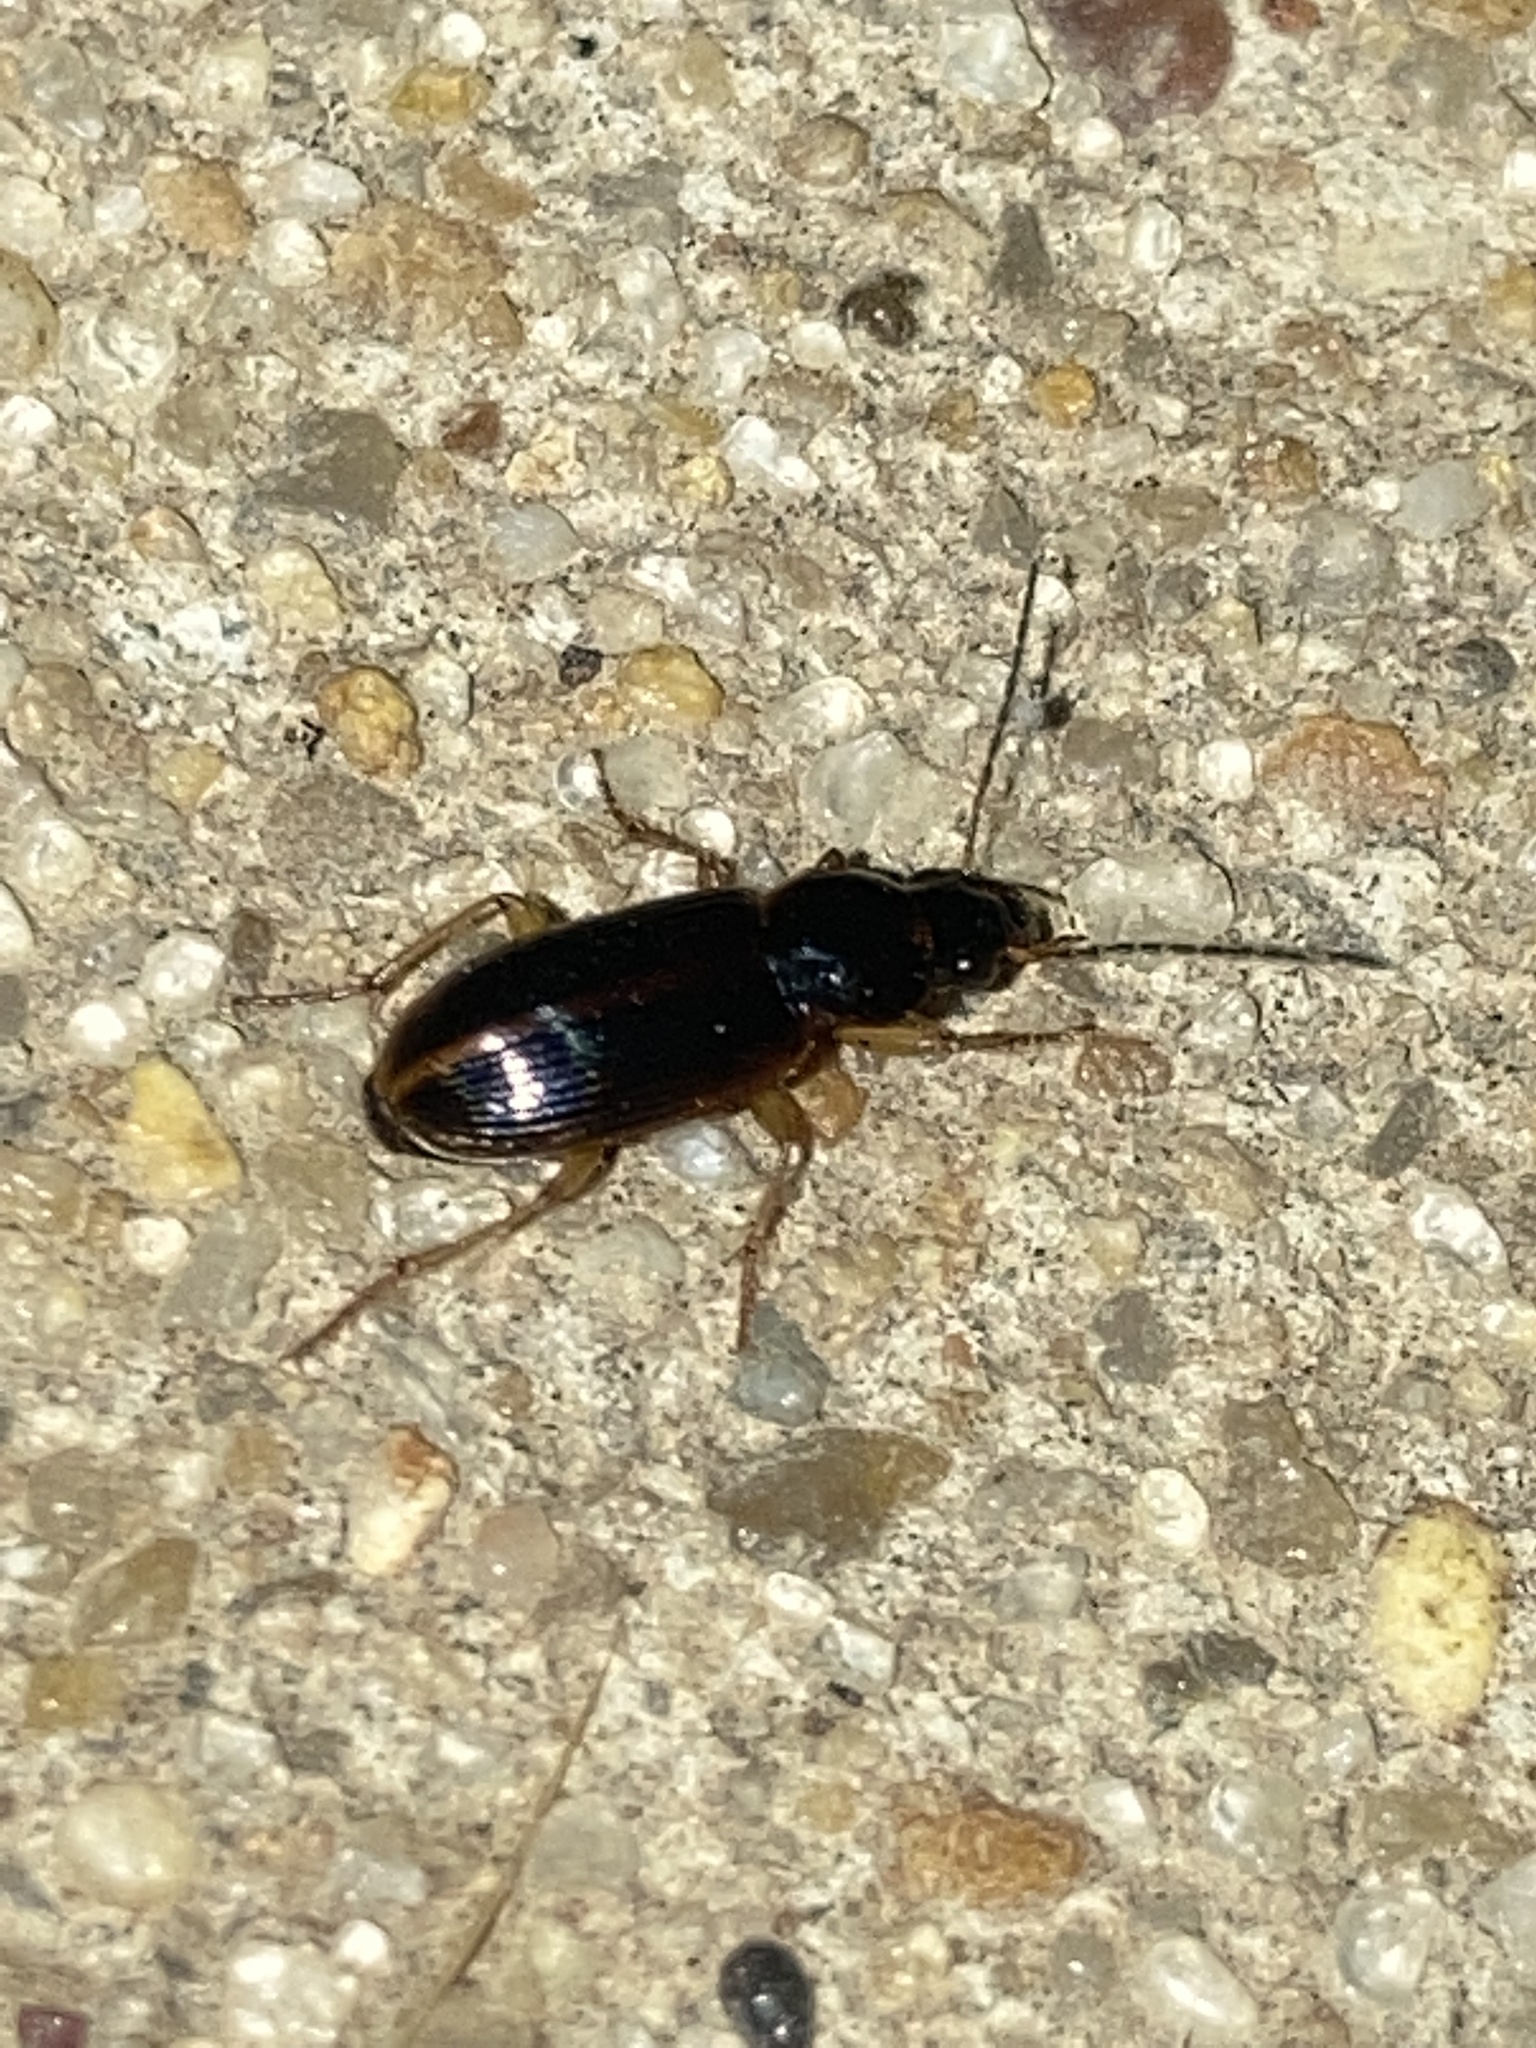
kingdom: Animalia
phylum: Arthropoda
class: Insecta
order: Coleoptera
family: Carabidae
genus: Stenolophus
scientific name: Stenolophus ochropezus
